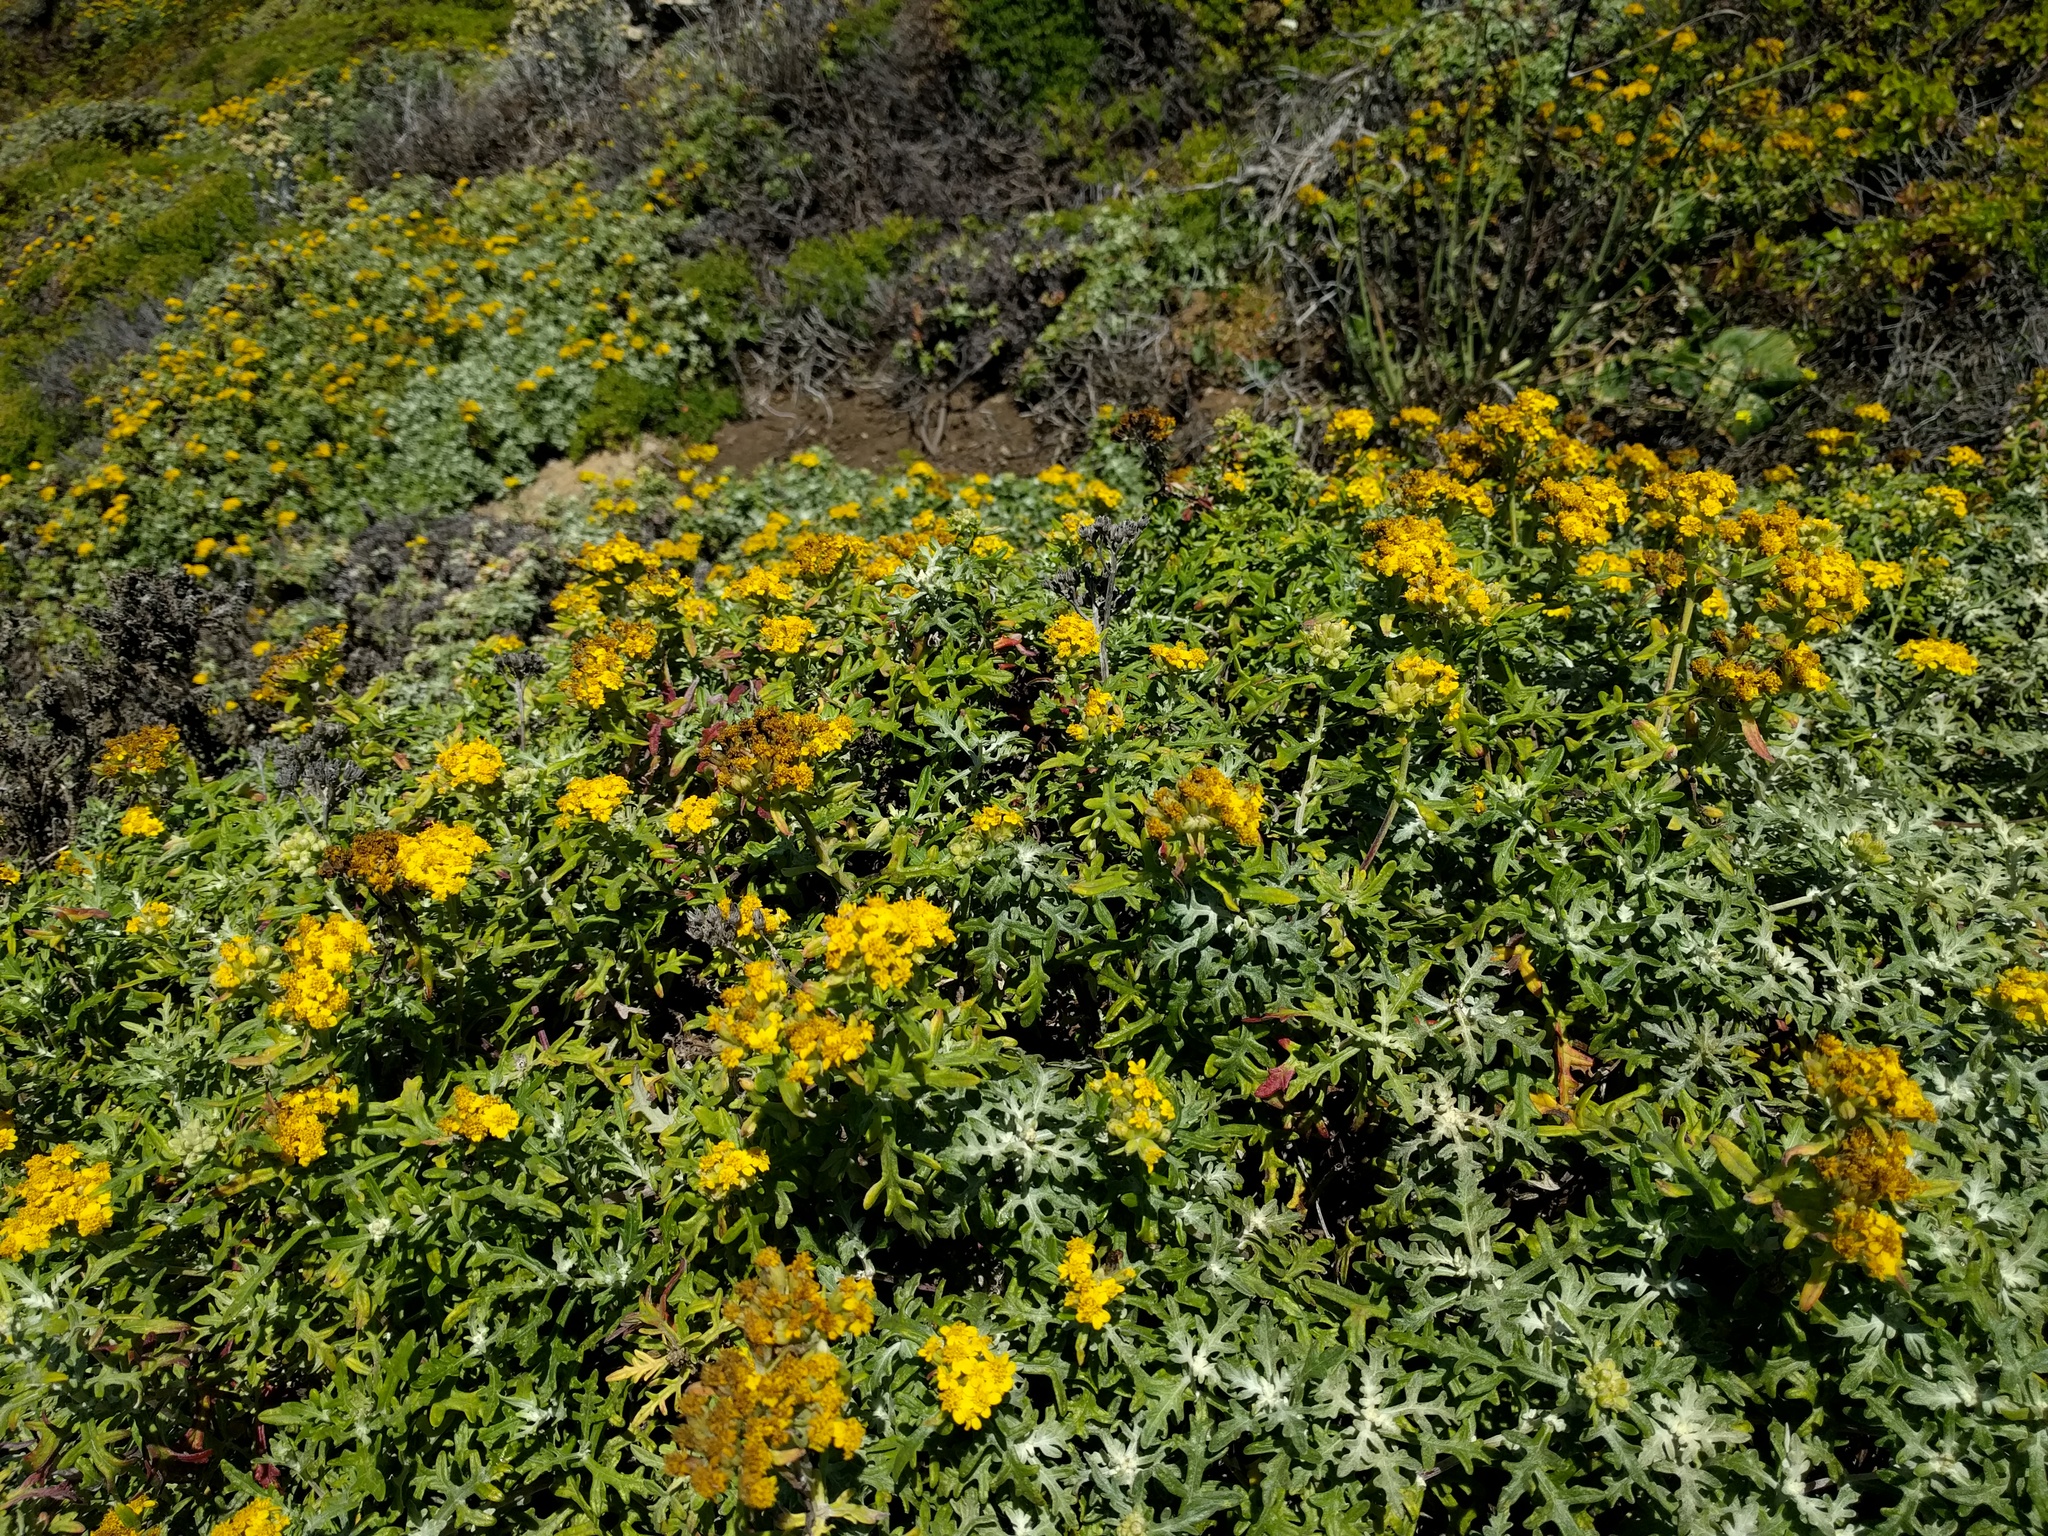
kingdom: Plantae
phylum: Tracheophyta
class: Magnoliopsida
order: Asterales
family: Asteraceae
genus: Eriophyllum
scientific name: Eriophyllum staechadifolium
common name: Lizardtail
